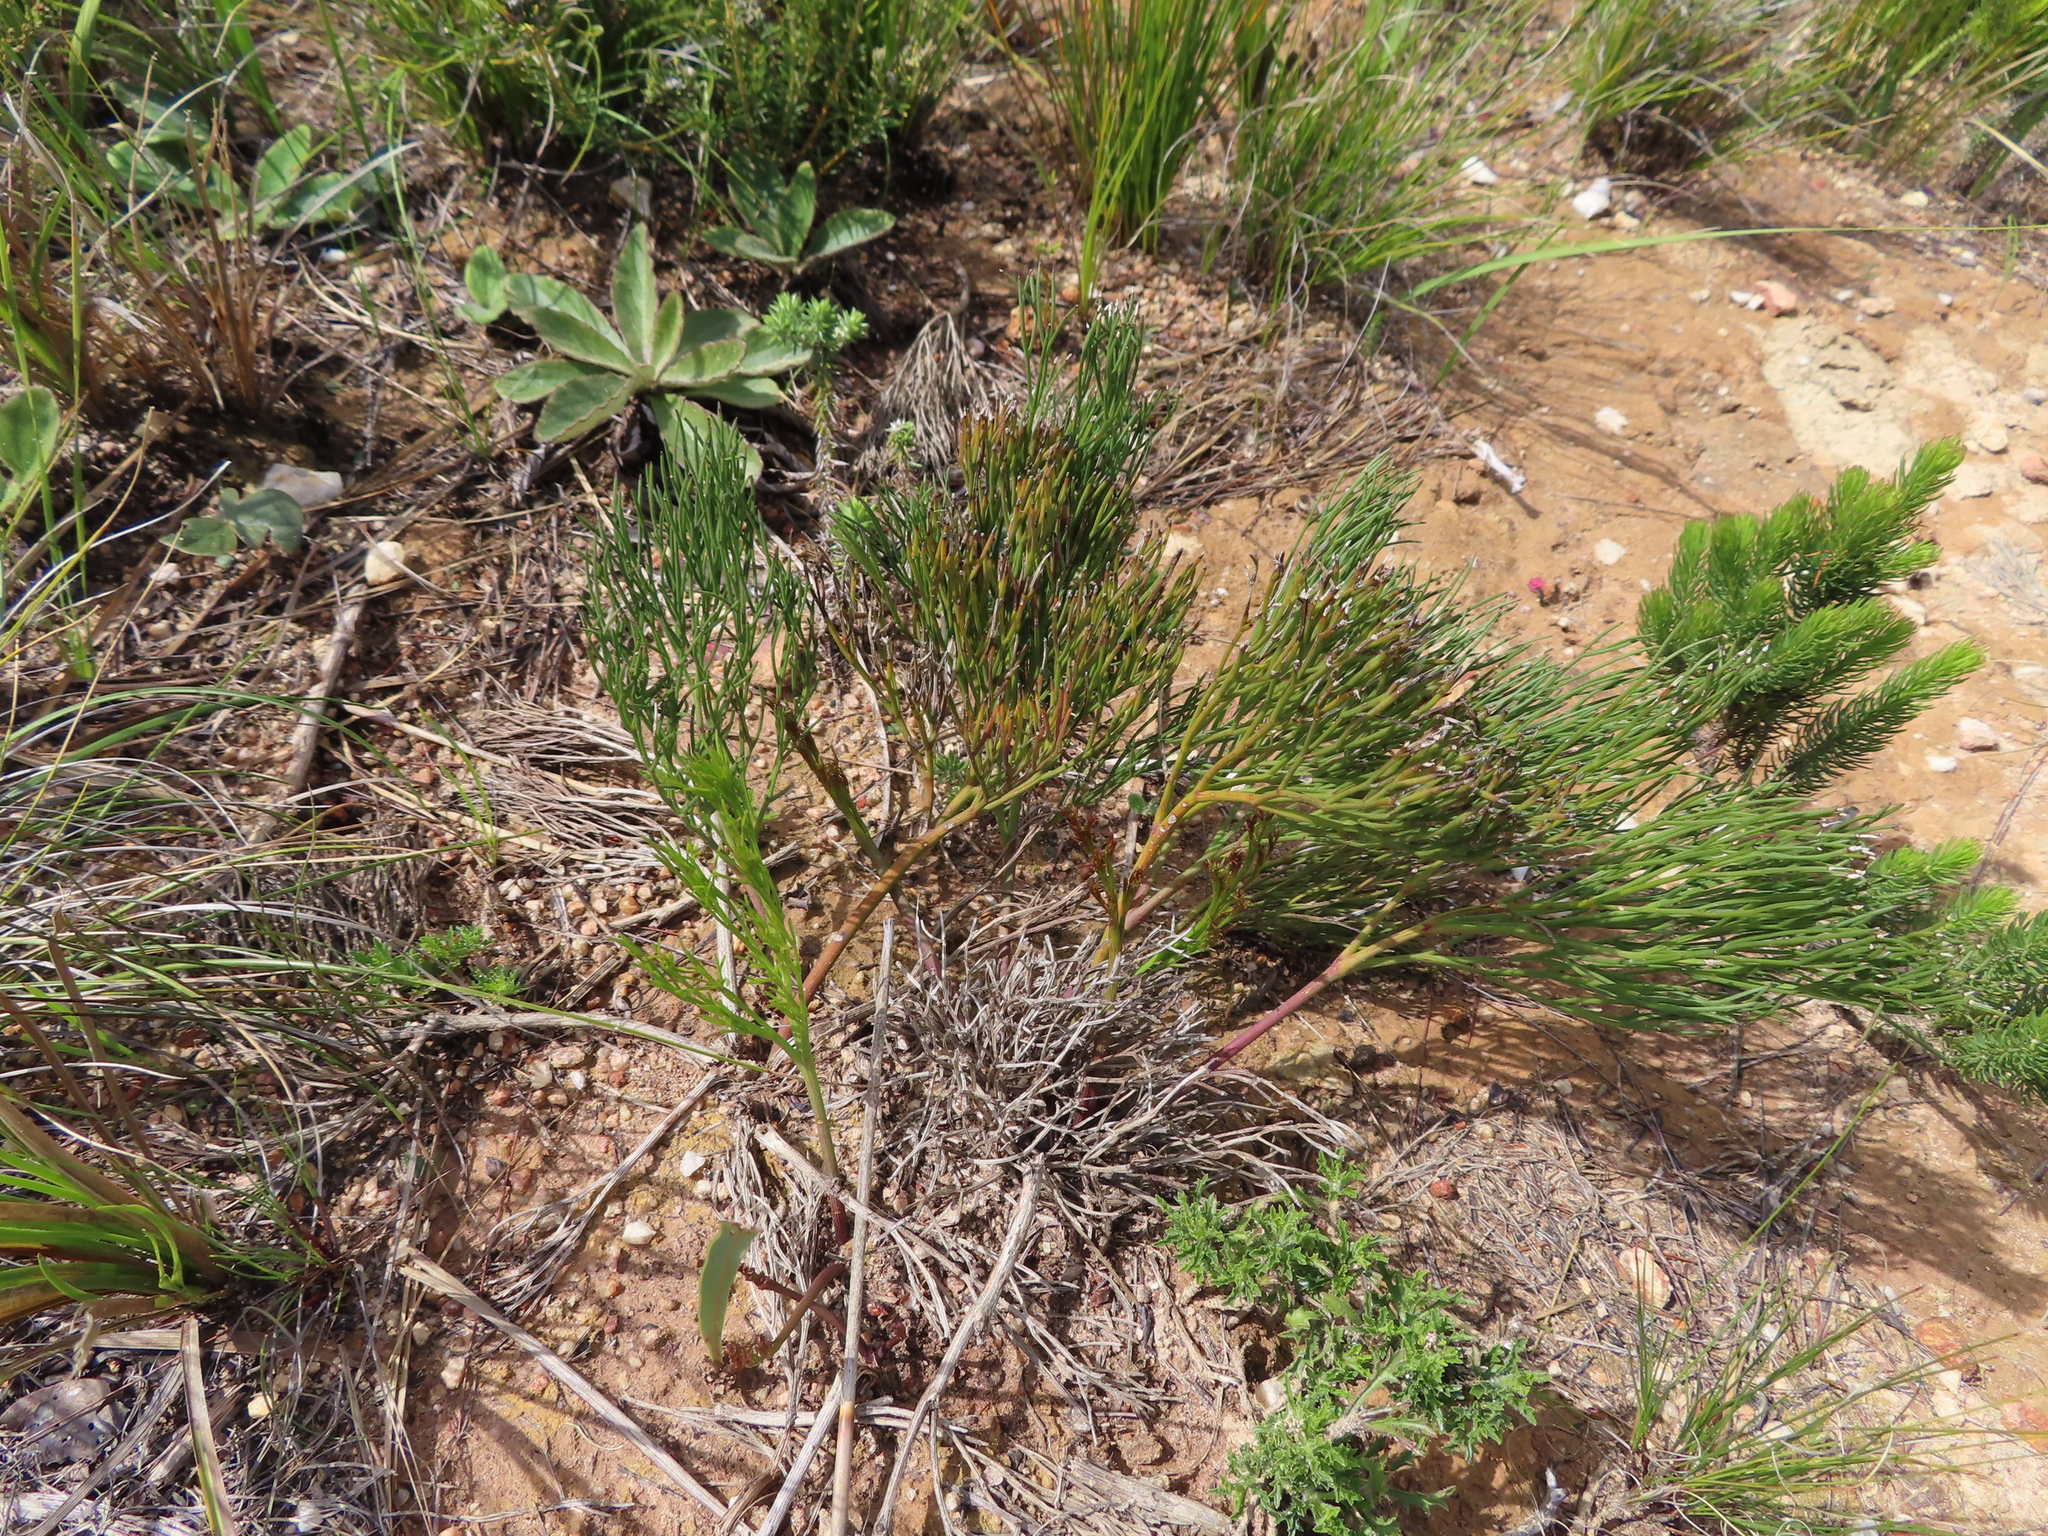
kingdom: Plantae
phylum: Tracheophyta
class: Magnoliopsida
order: Apiales
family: Apiaceae
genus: Nanobubon
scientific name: Nanobubon strictum
